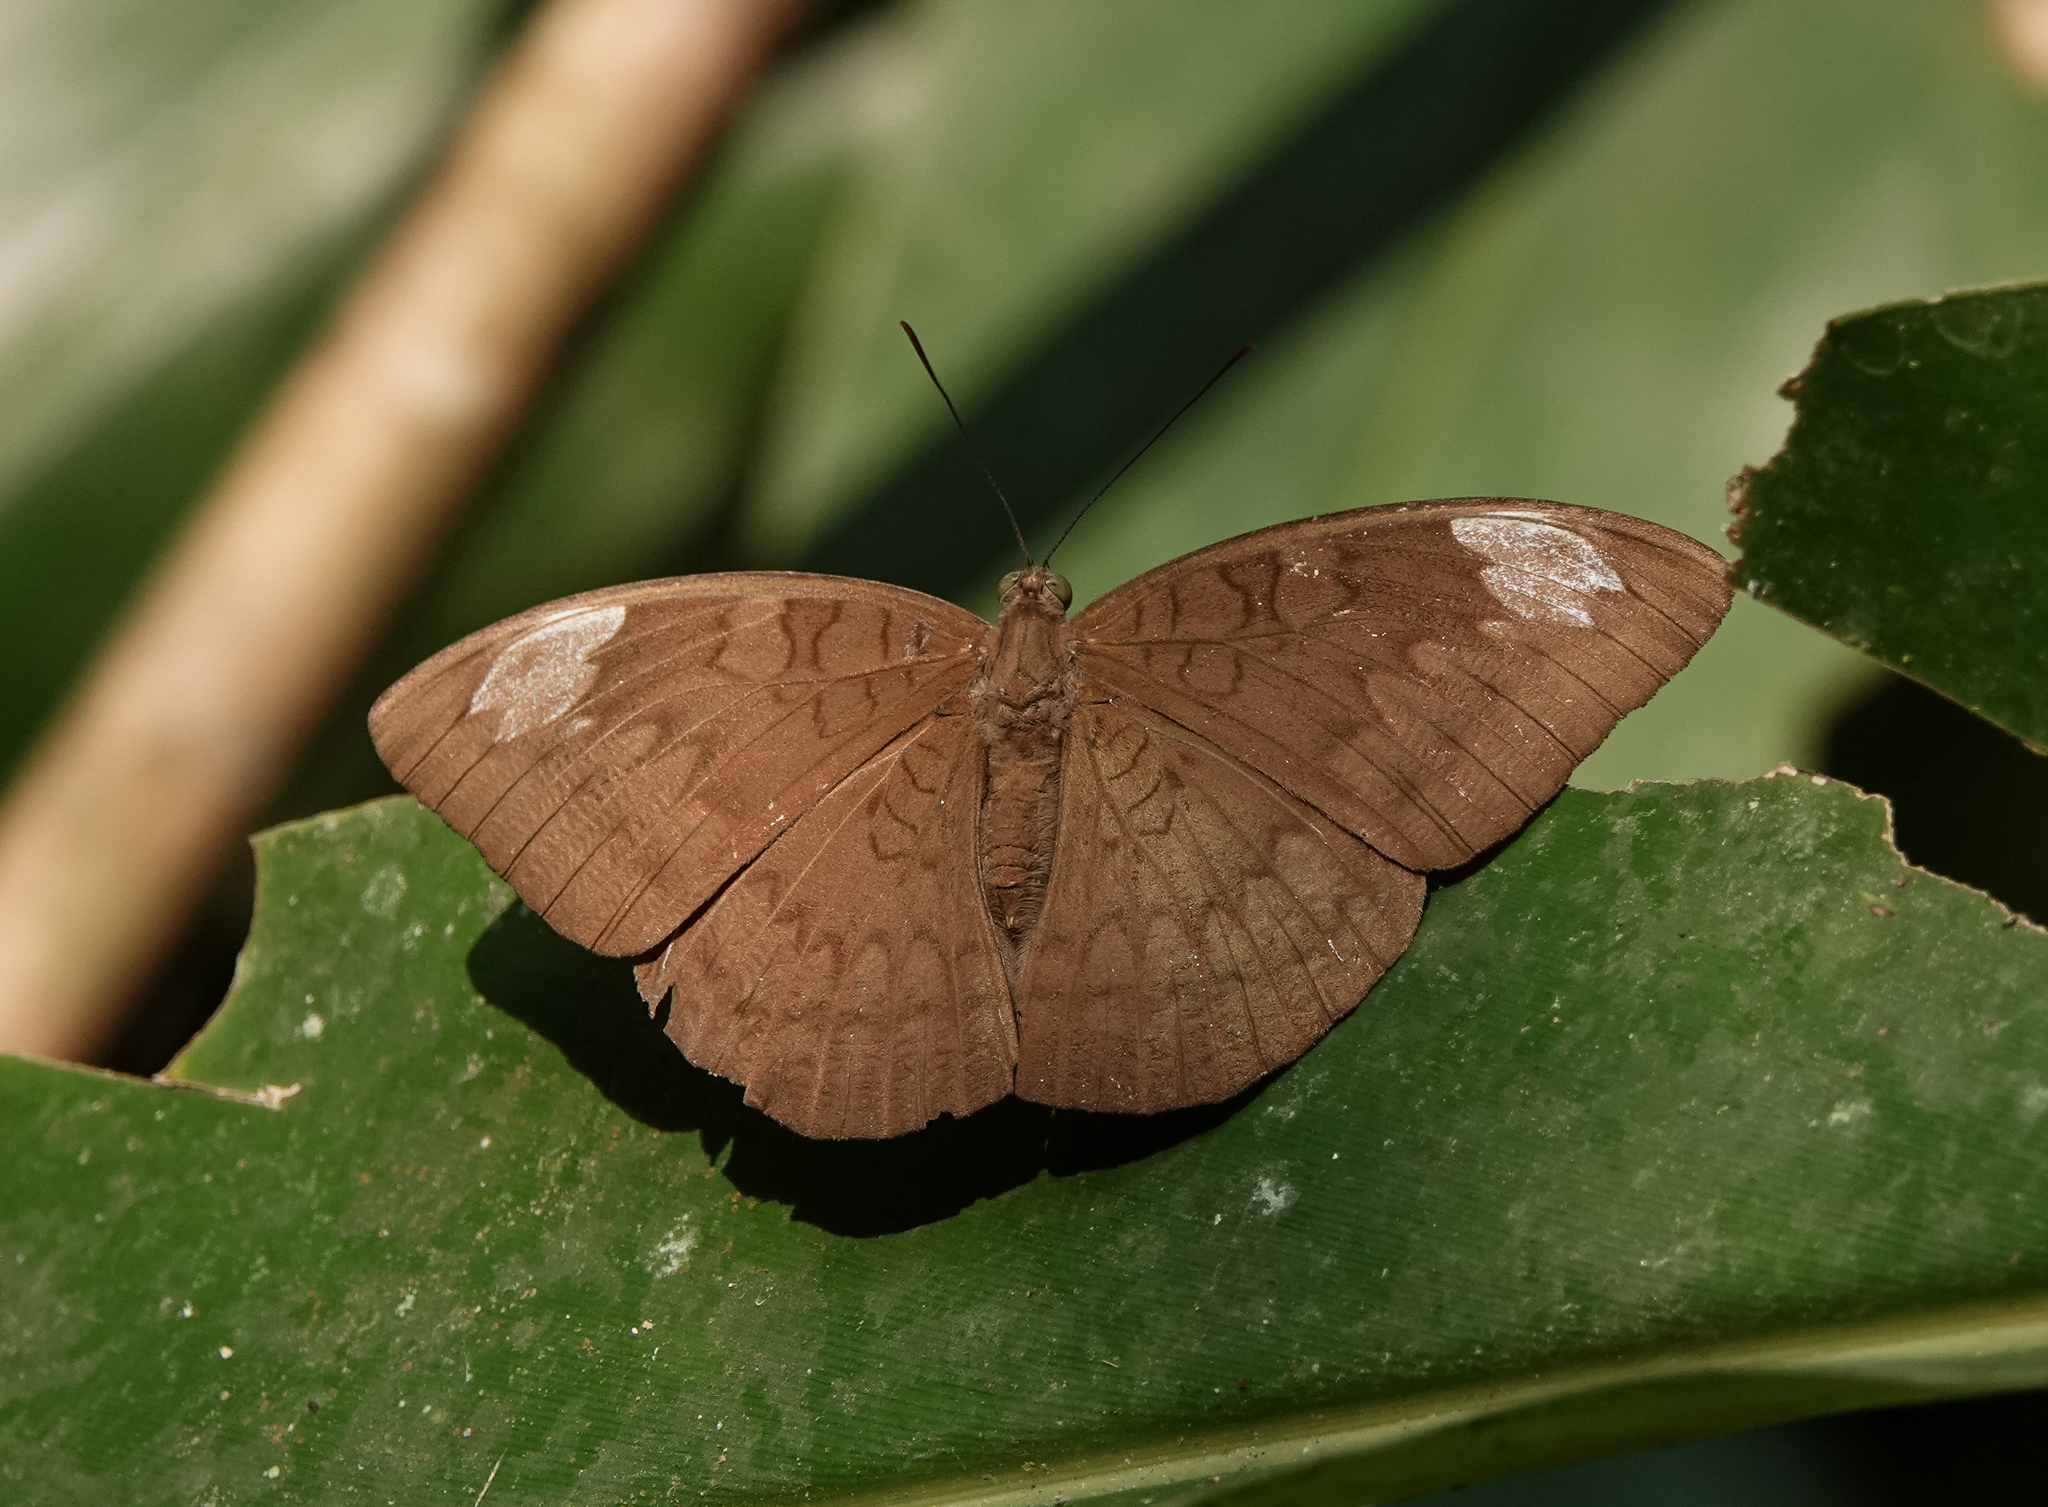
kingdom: Animalia
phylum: Arthropoda
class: Insecta
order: Lepidoptera
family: Nymphalidae
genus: Tanaecia
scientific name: Tanaecia julii
